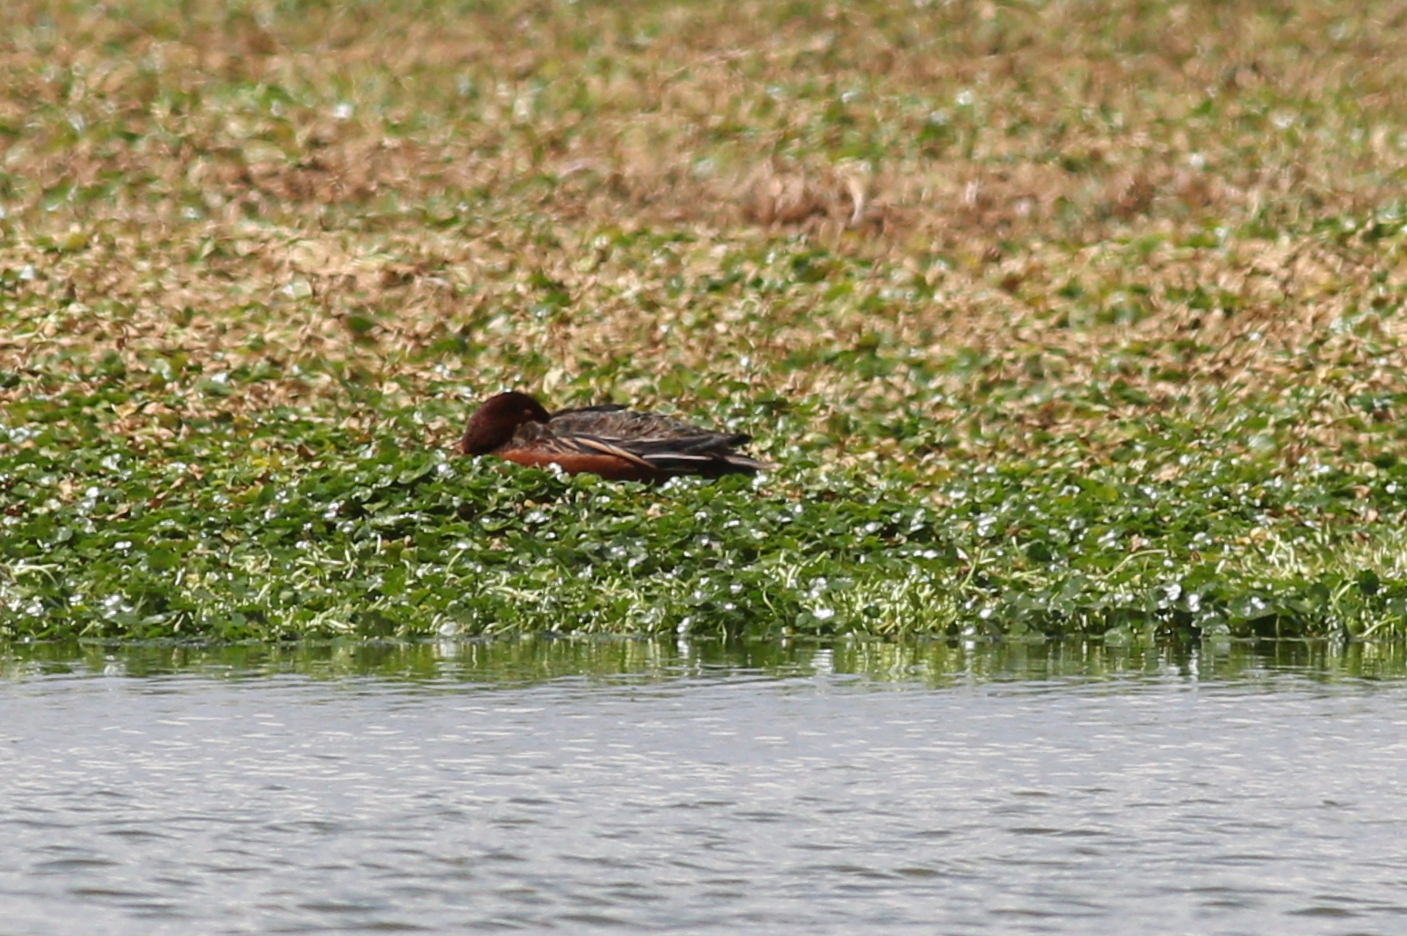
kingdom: Animalia
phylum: Chordata
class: Aves
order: Anseriformes
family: Anatidae
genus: Spatula
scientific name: Spatula cyanoptera
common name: Cinnamon teal
